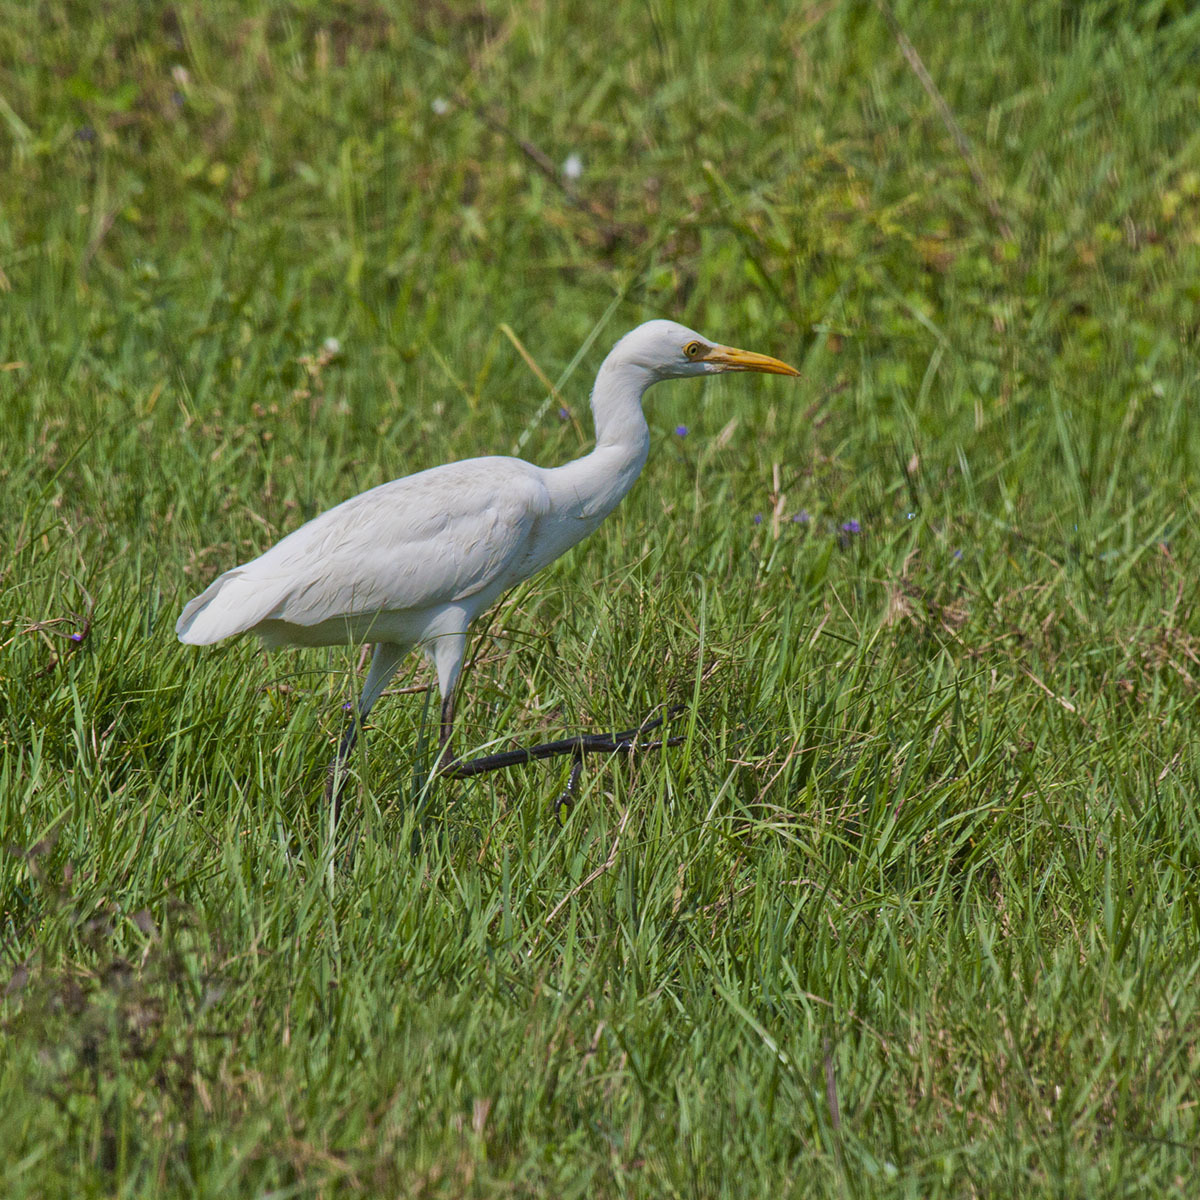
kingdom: Animalia
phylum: Chordata
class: Aves
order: Pelecaniformes
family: Ardeidae
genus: Bubulcus
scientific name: Bubulcus coromandus
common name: Eastern cattle egret
